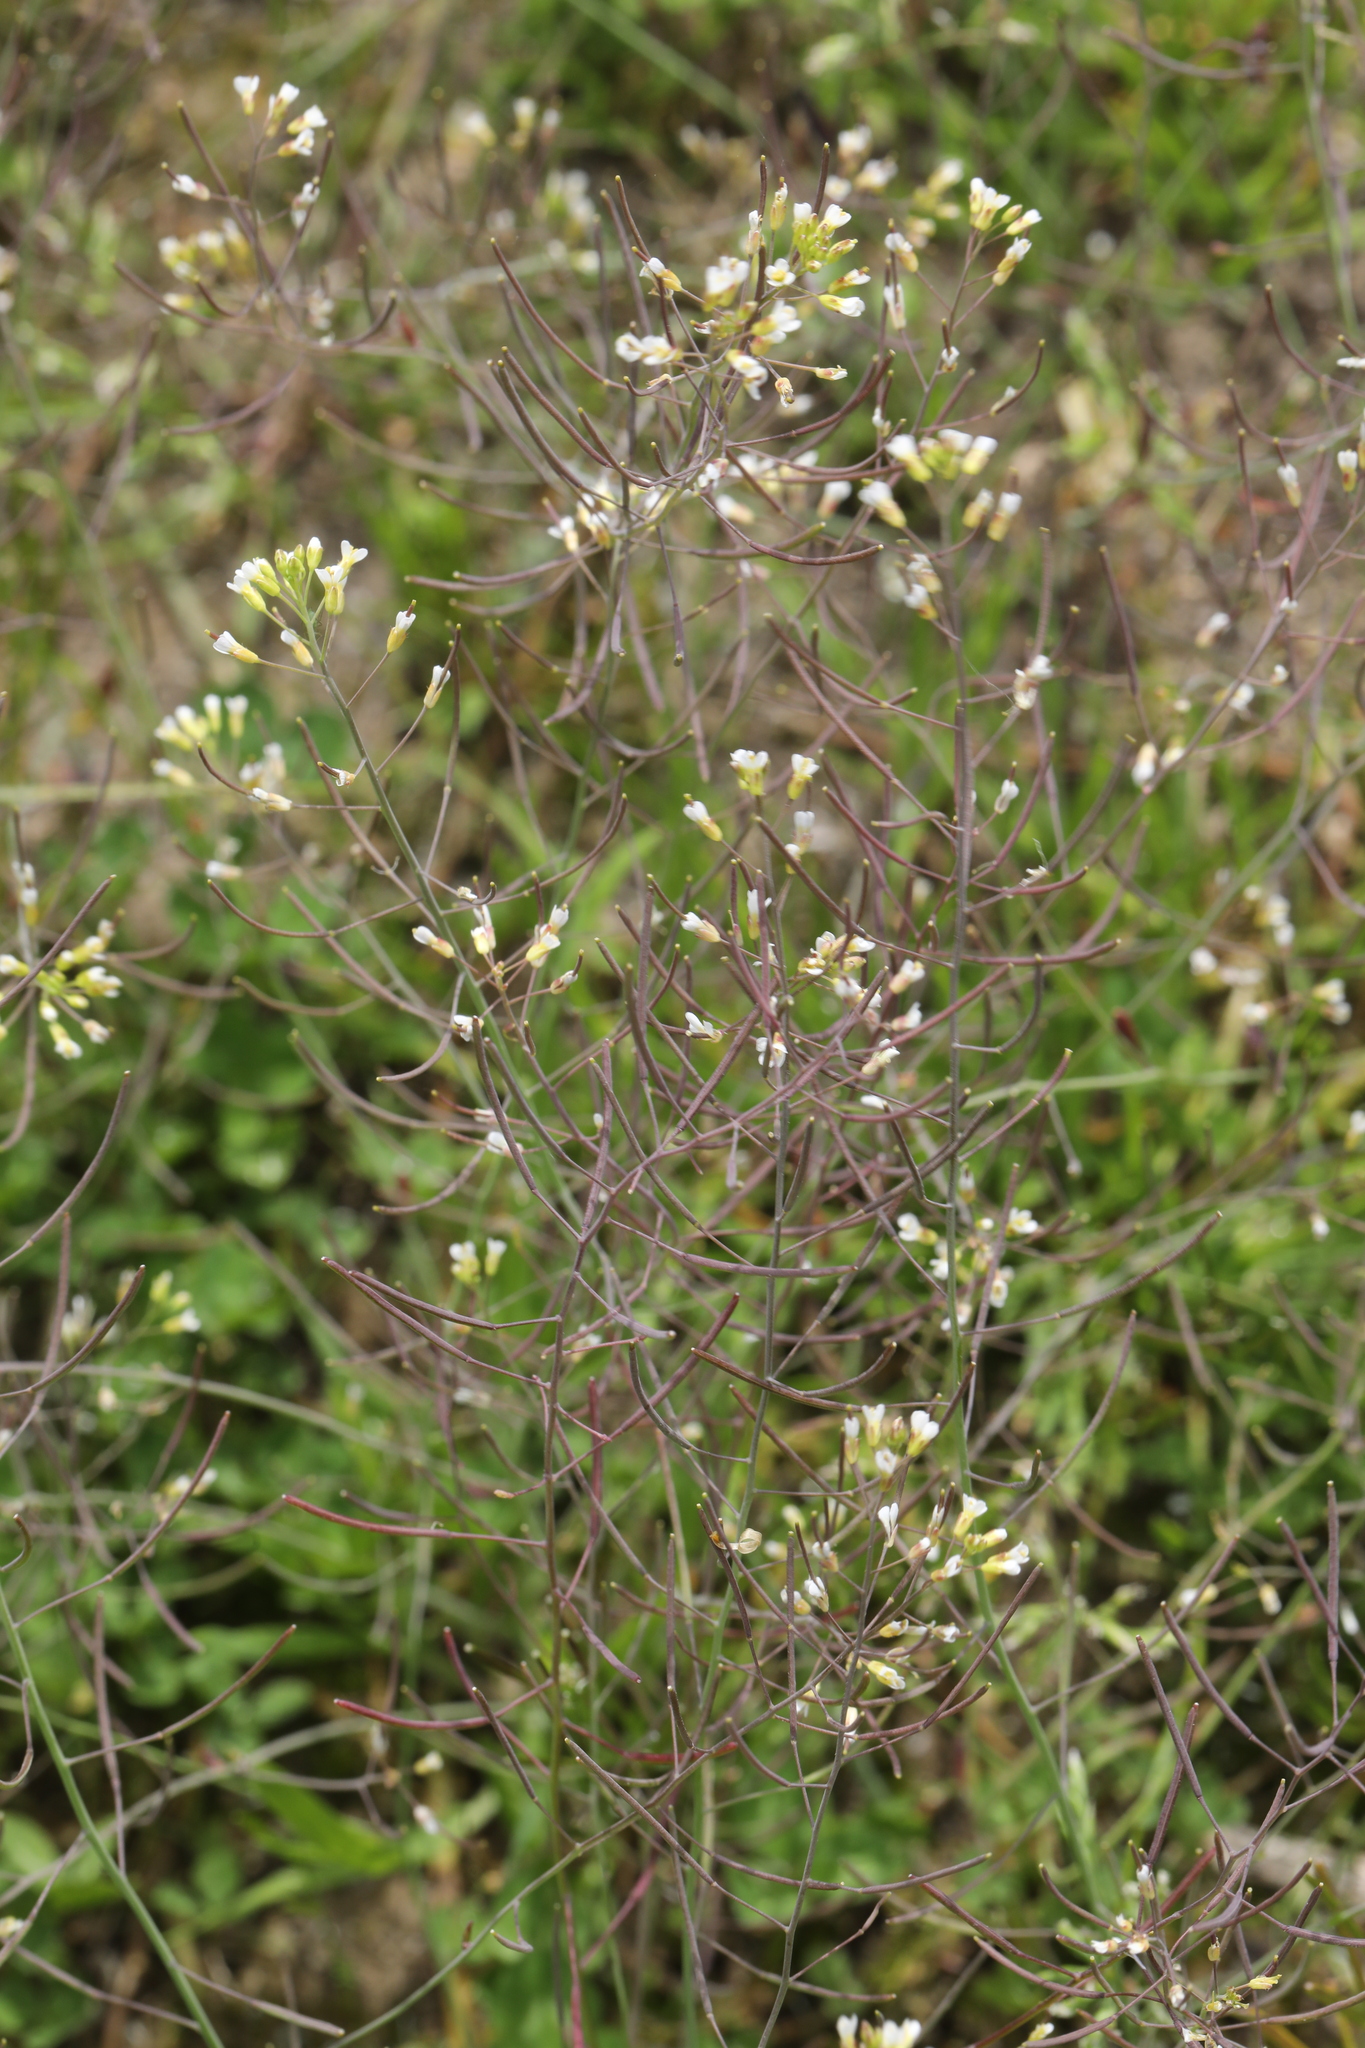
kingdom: Plantae
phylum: Tracheophyta
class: Magnoliopsida
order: Brassicales
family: Brassicaceae
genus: Arabidopsis
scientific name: Arabidopsis thaliana
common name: Thale cress
